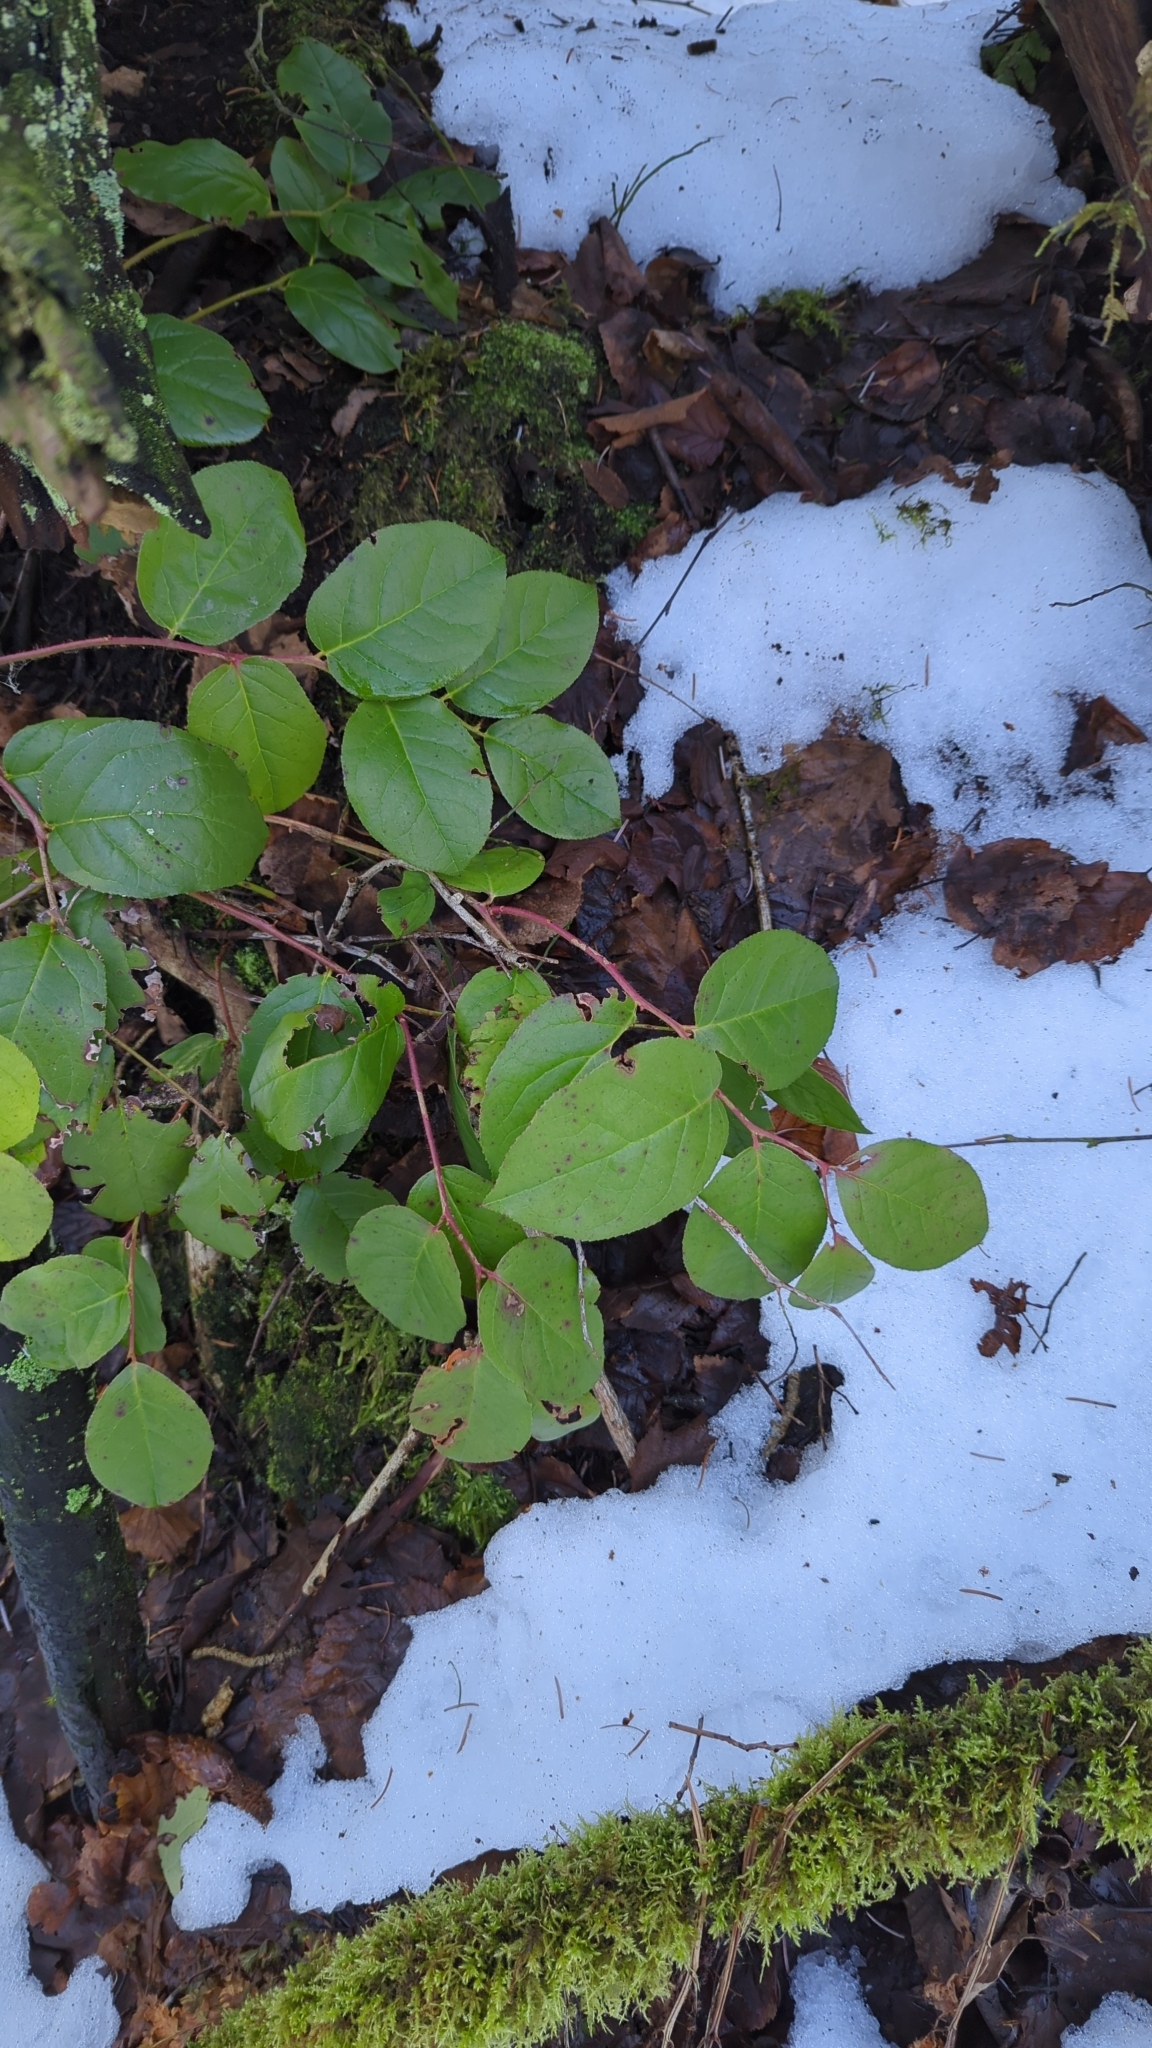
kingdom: Plantae
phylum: Tracheophyta
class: Magnoliopsida
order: Ericales
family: Ericaceae
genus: Gaultheria
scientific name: Gaultheria shallon
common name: Shallon
